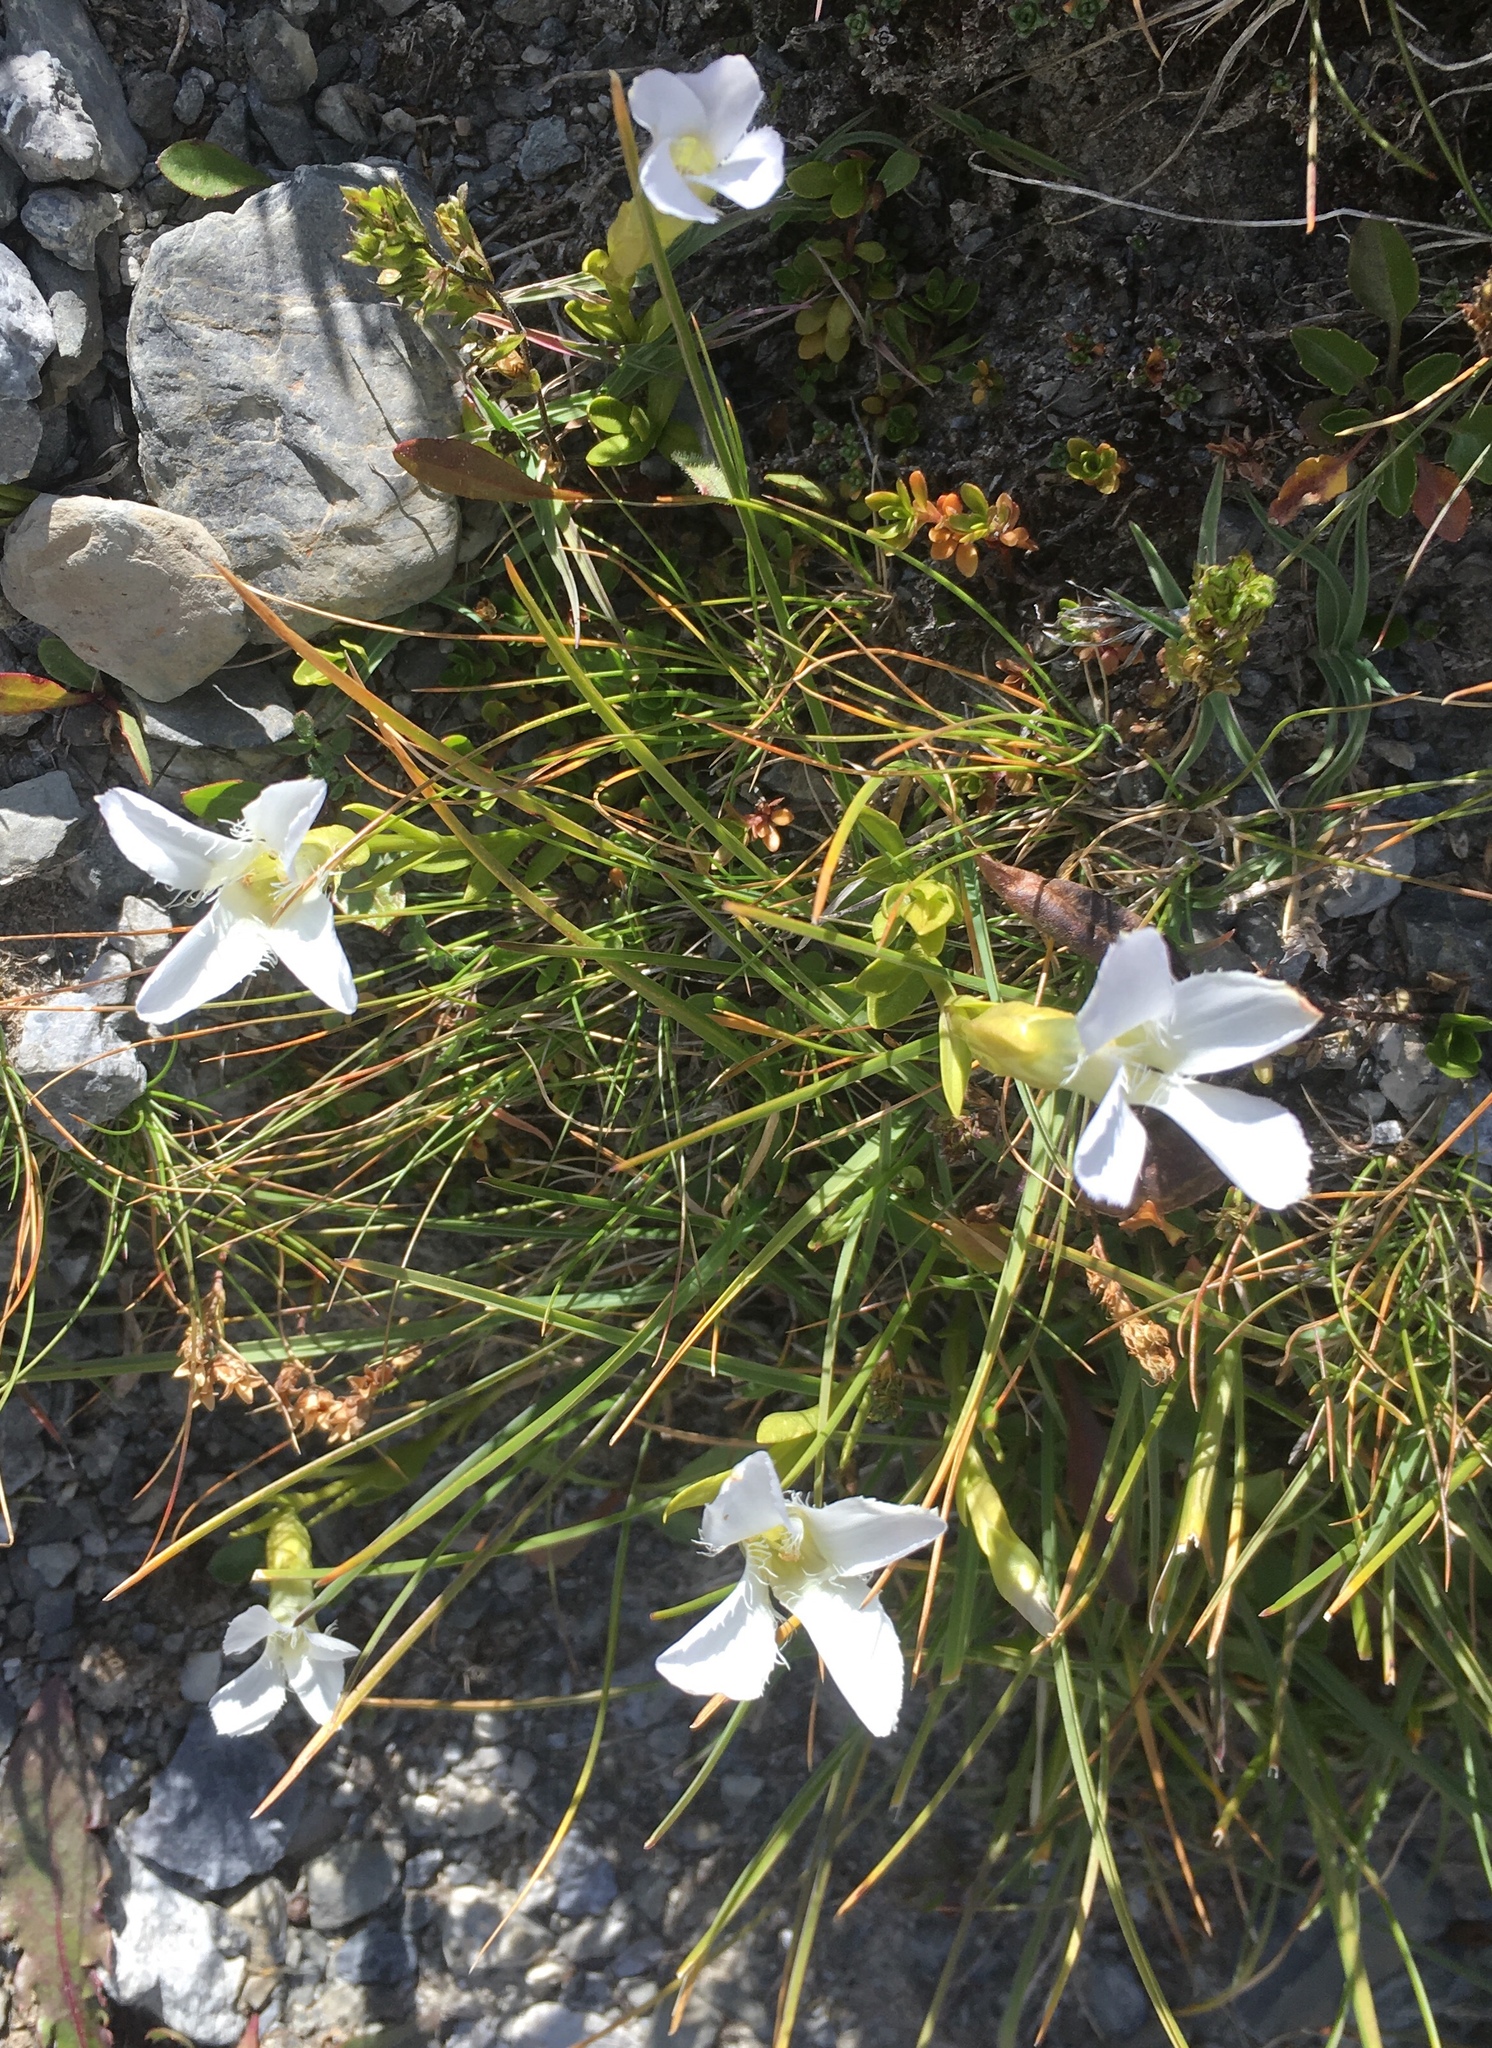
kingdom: Plantae
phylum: Tracheophyta
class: Magnoliopsida
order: Gentianales
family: Gentianaceae
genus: Gentianopsis
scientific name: Gentianopsis ciliata
